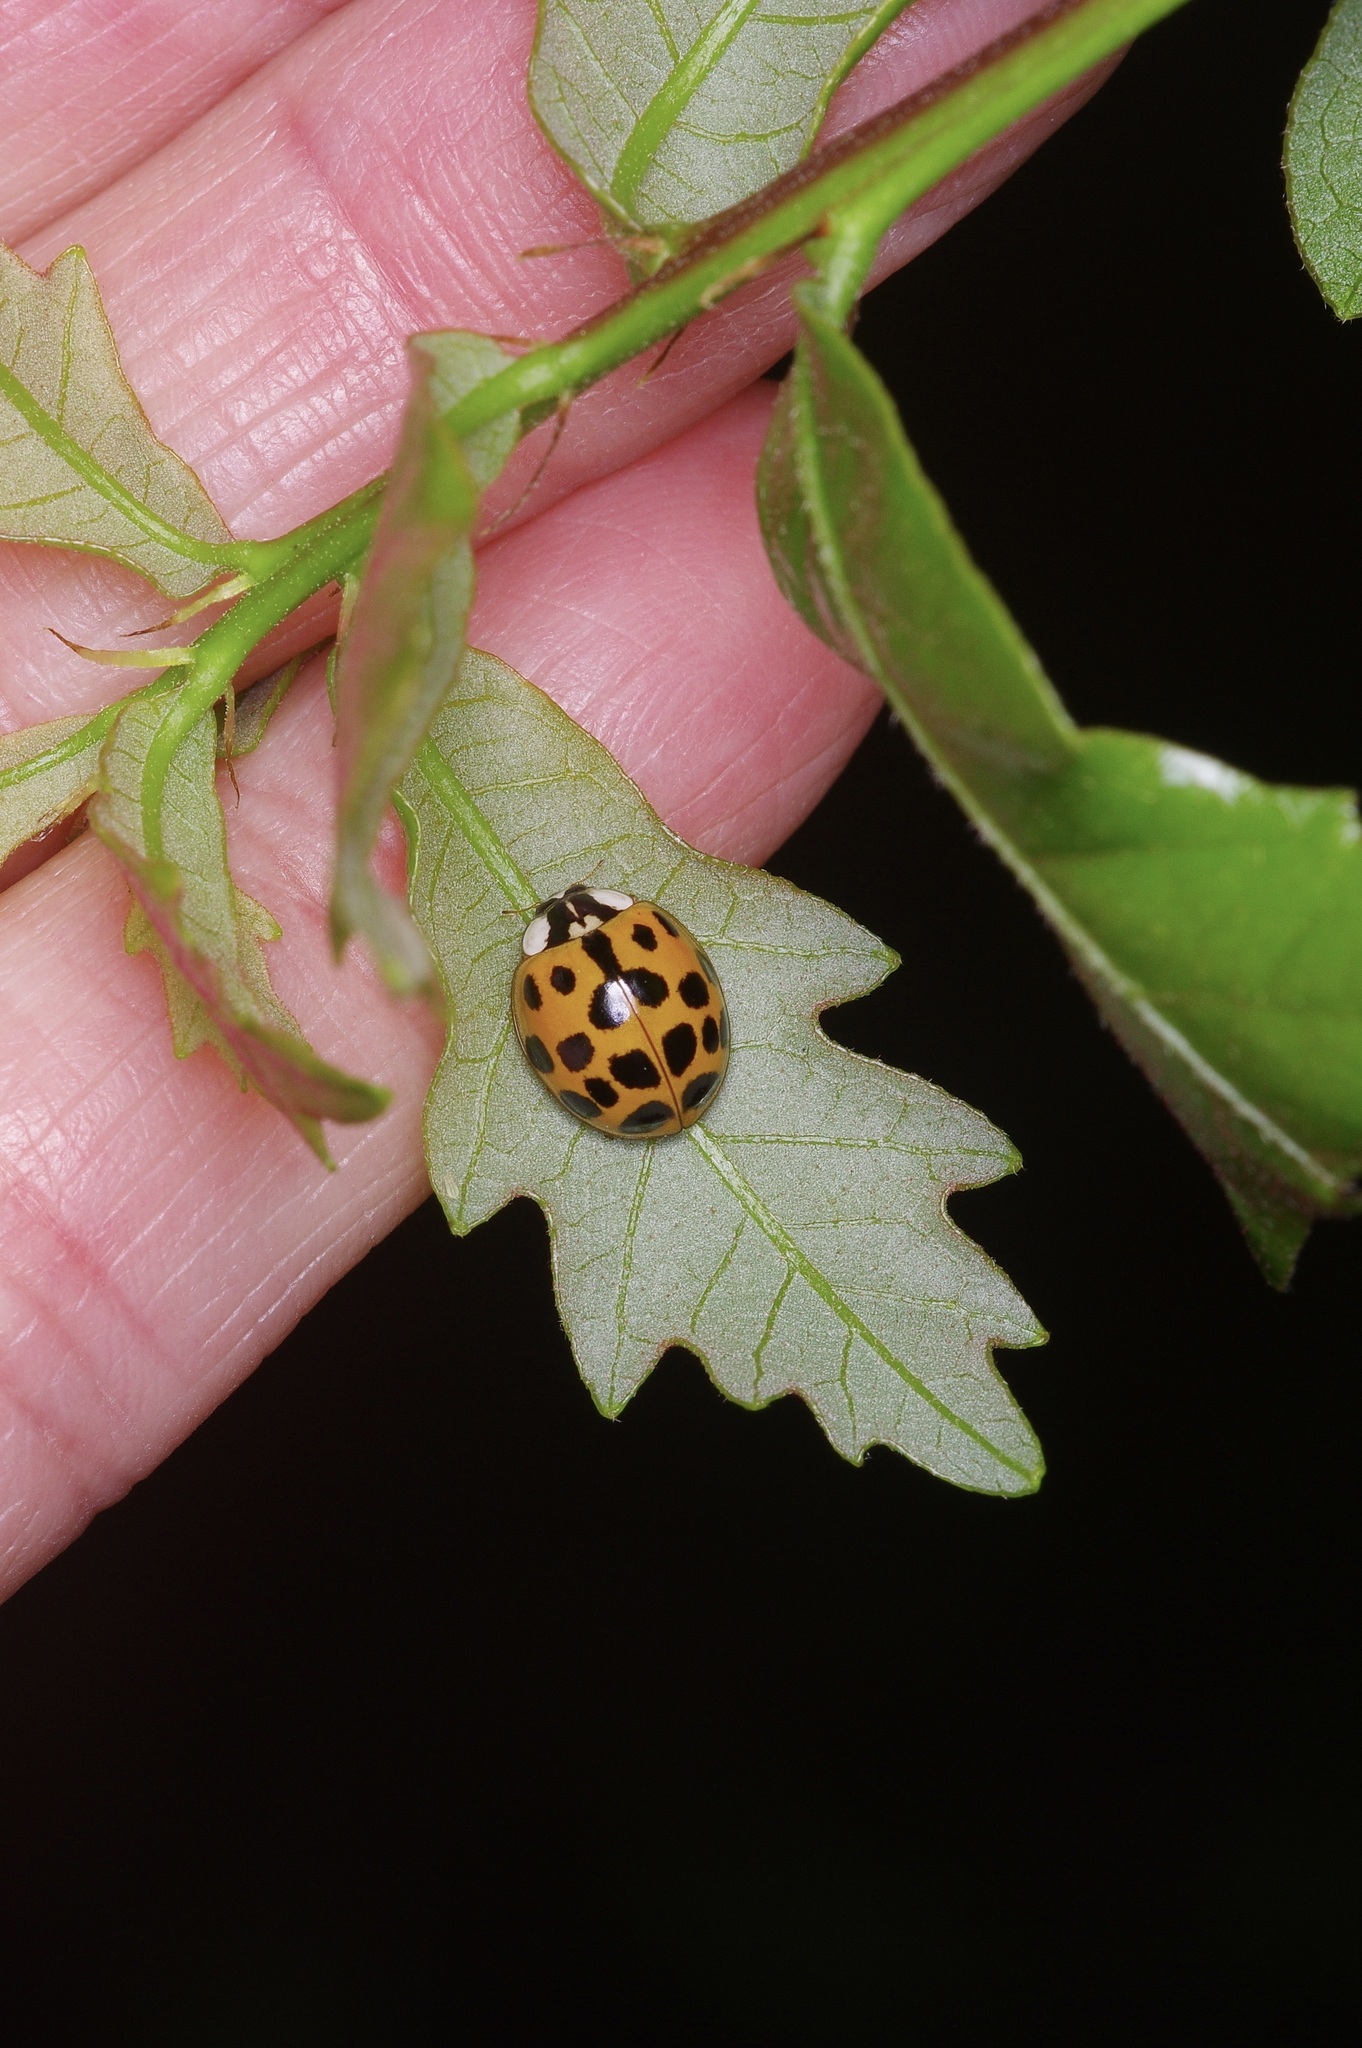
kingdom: Animalia
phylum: Arthropoda
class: Insecta
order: Coleoptera
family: Coccinellidae
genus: Harmonia
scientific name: Harmonia axyridis
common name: Harlequin ladybird
